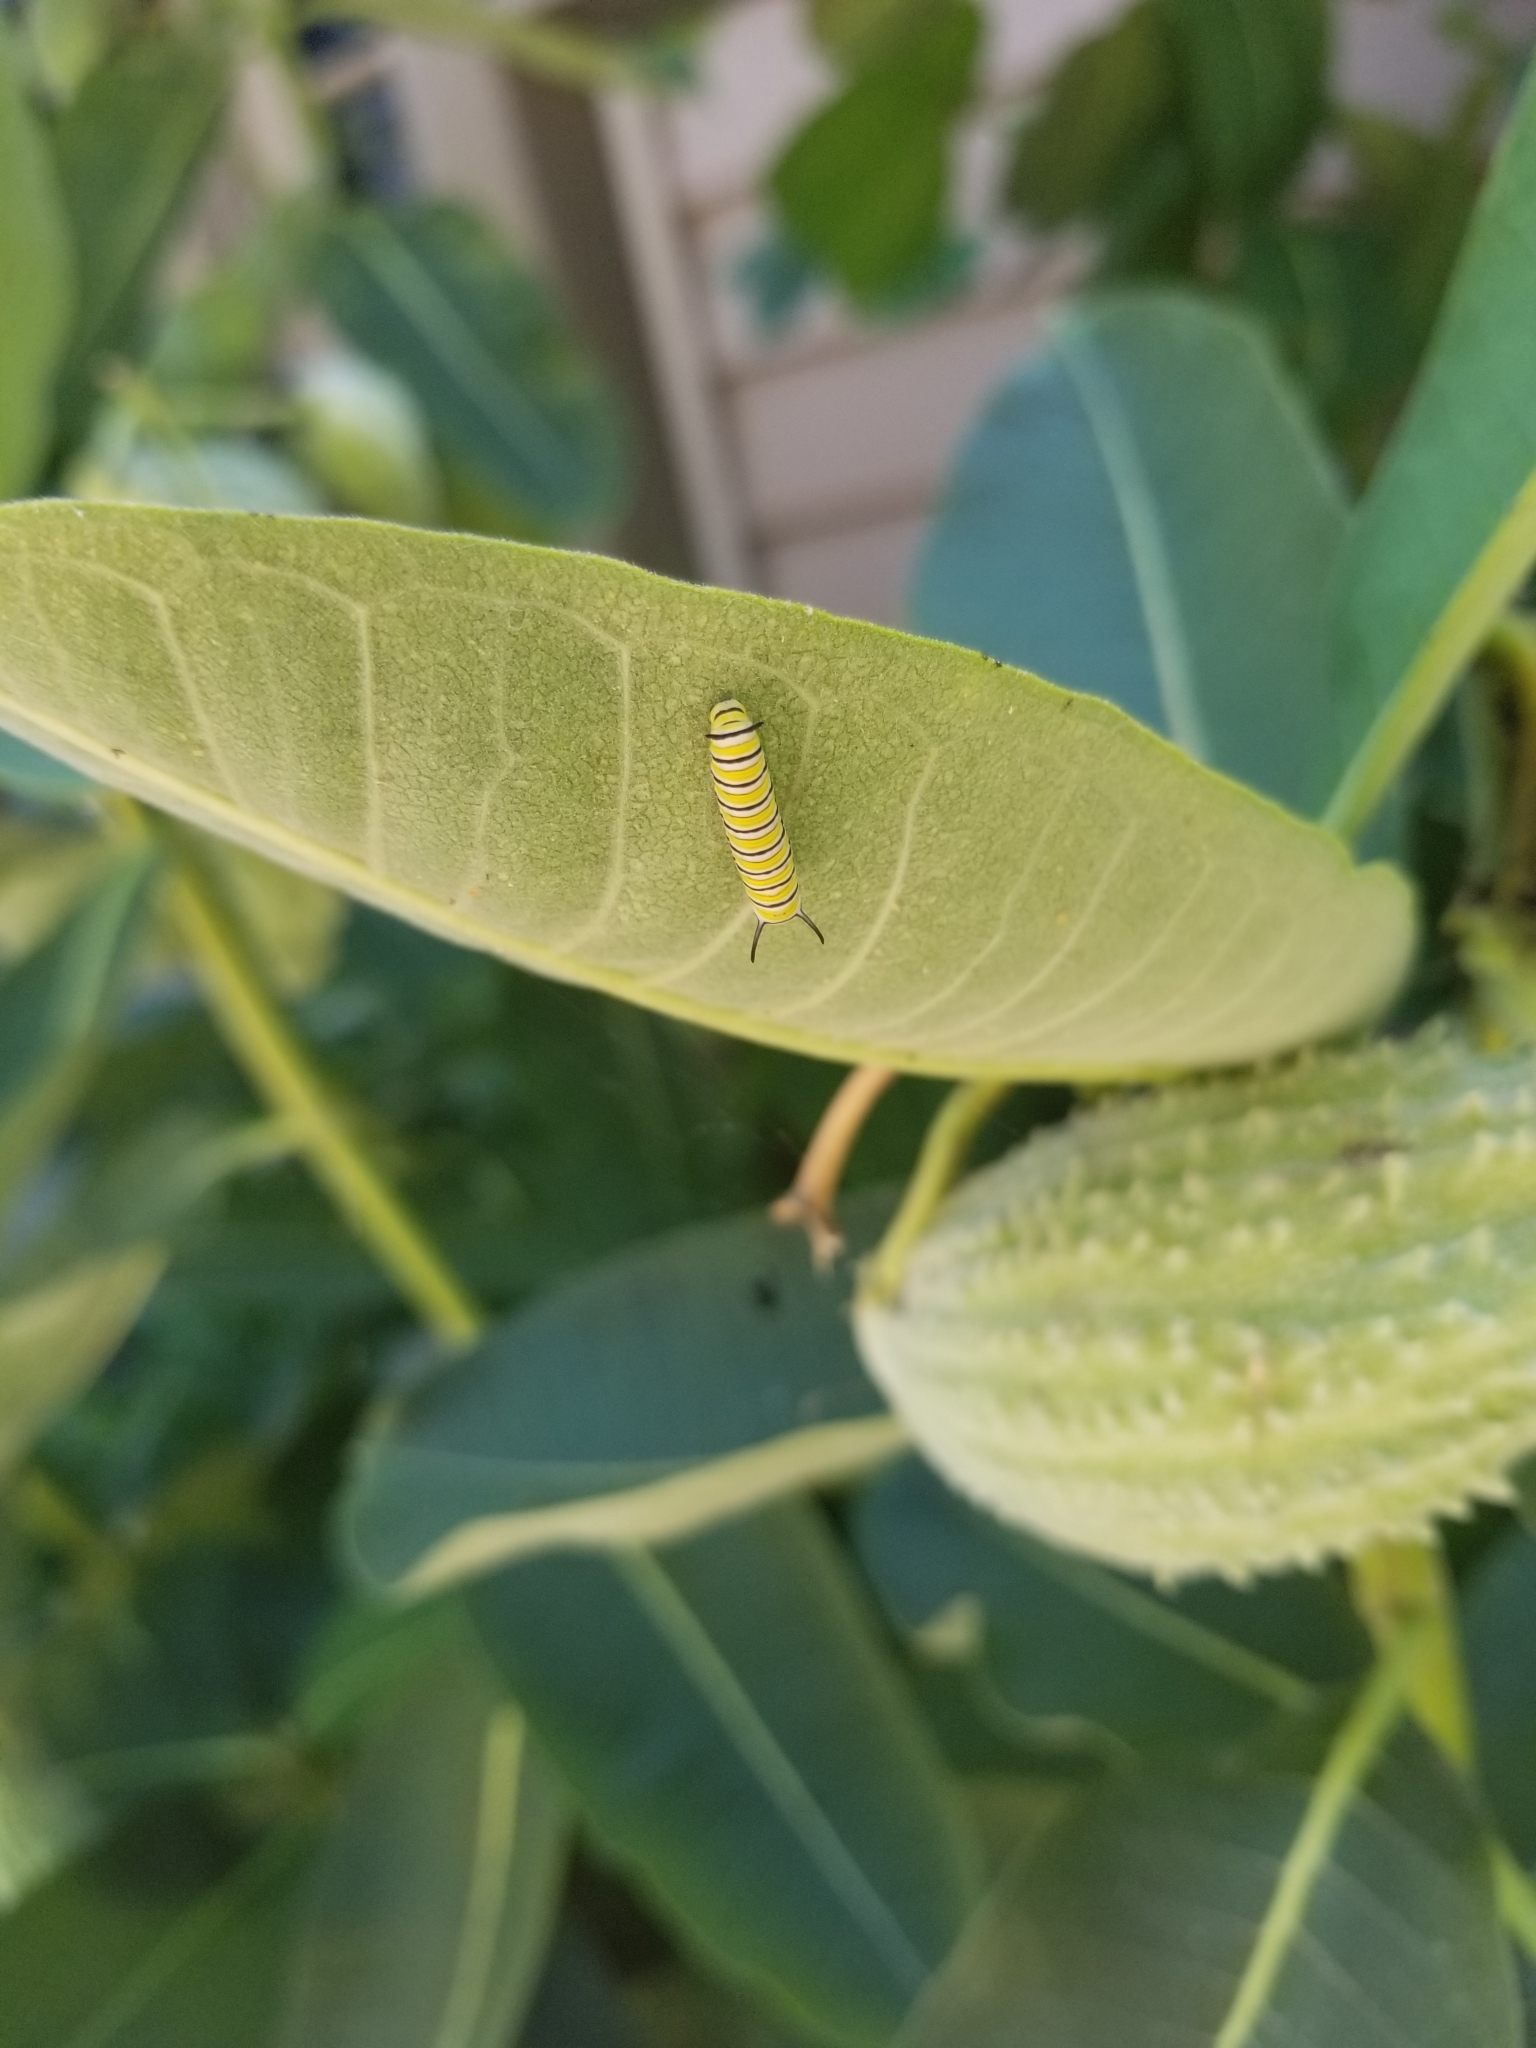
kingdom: Animalia
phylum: Arthropoda
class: Insecta
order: Lepidoptera
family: Nymphalidae
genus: Danaus
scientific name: Danaus plexippus
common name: Monarch
